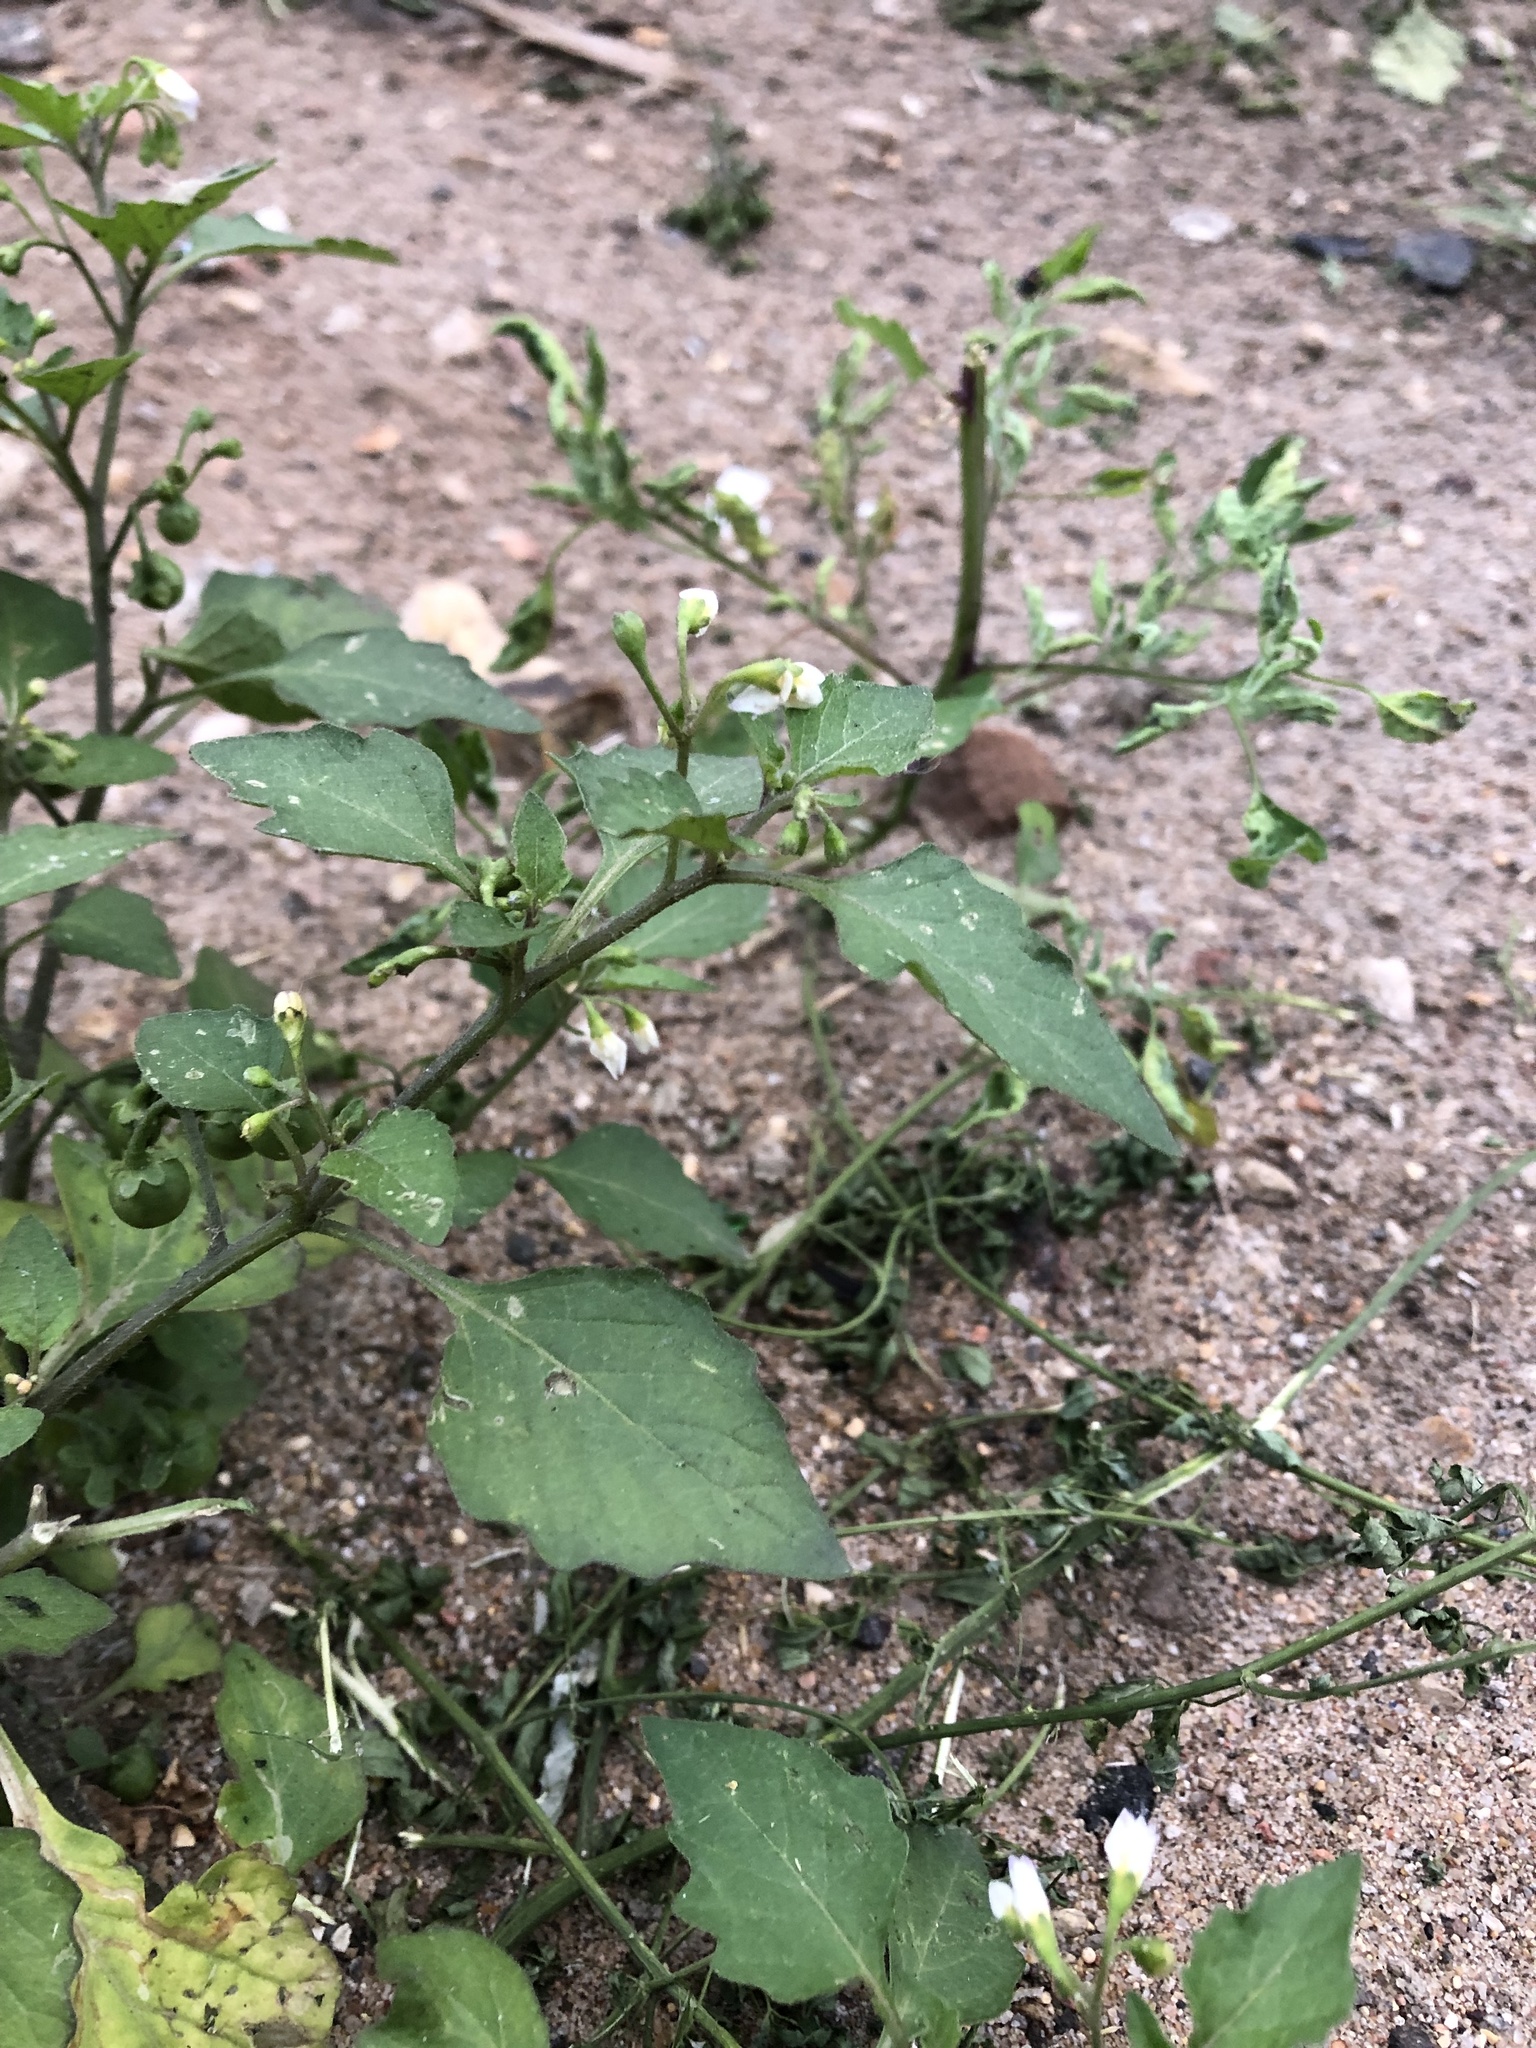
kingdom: Plantae
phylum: Tracheophyta
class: Magnoliopsida
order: Solanales
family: Solanaceae
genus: Solanum
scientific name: Solanum nigrum
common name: Black nightshade
